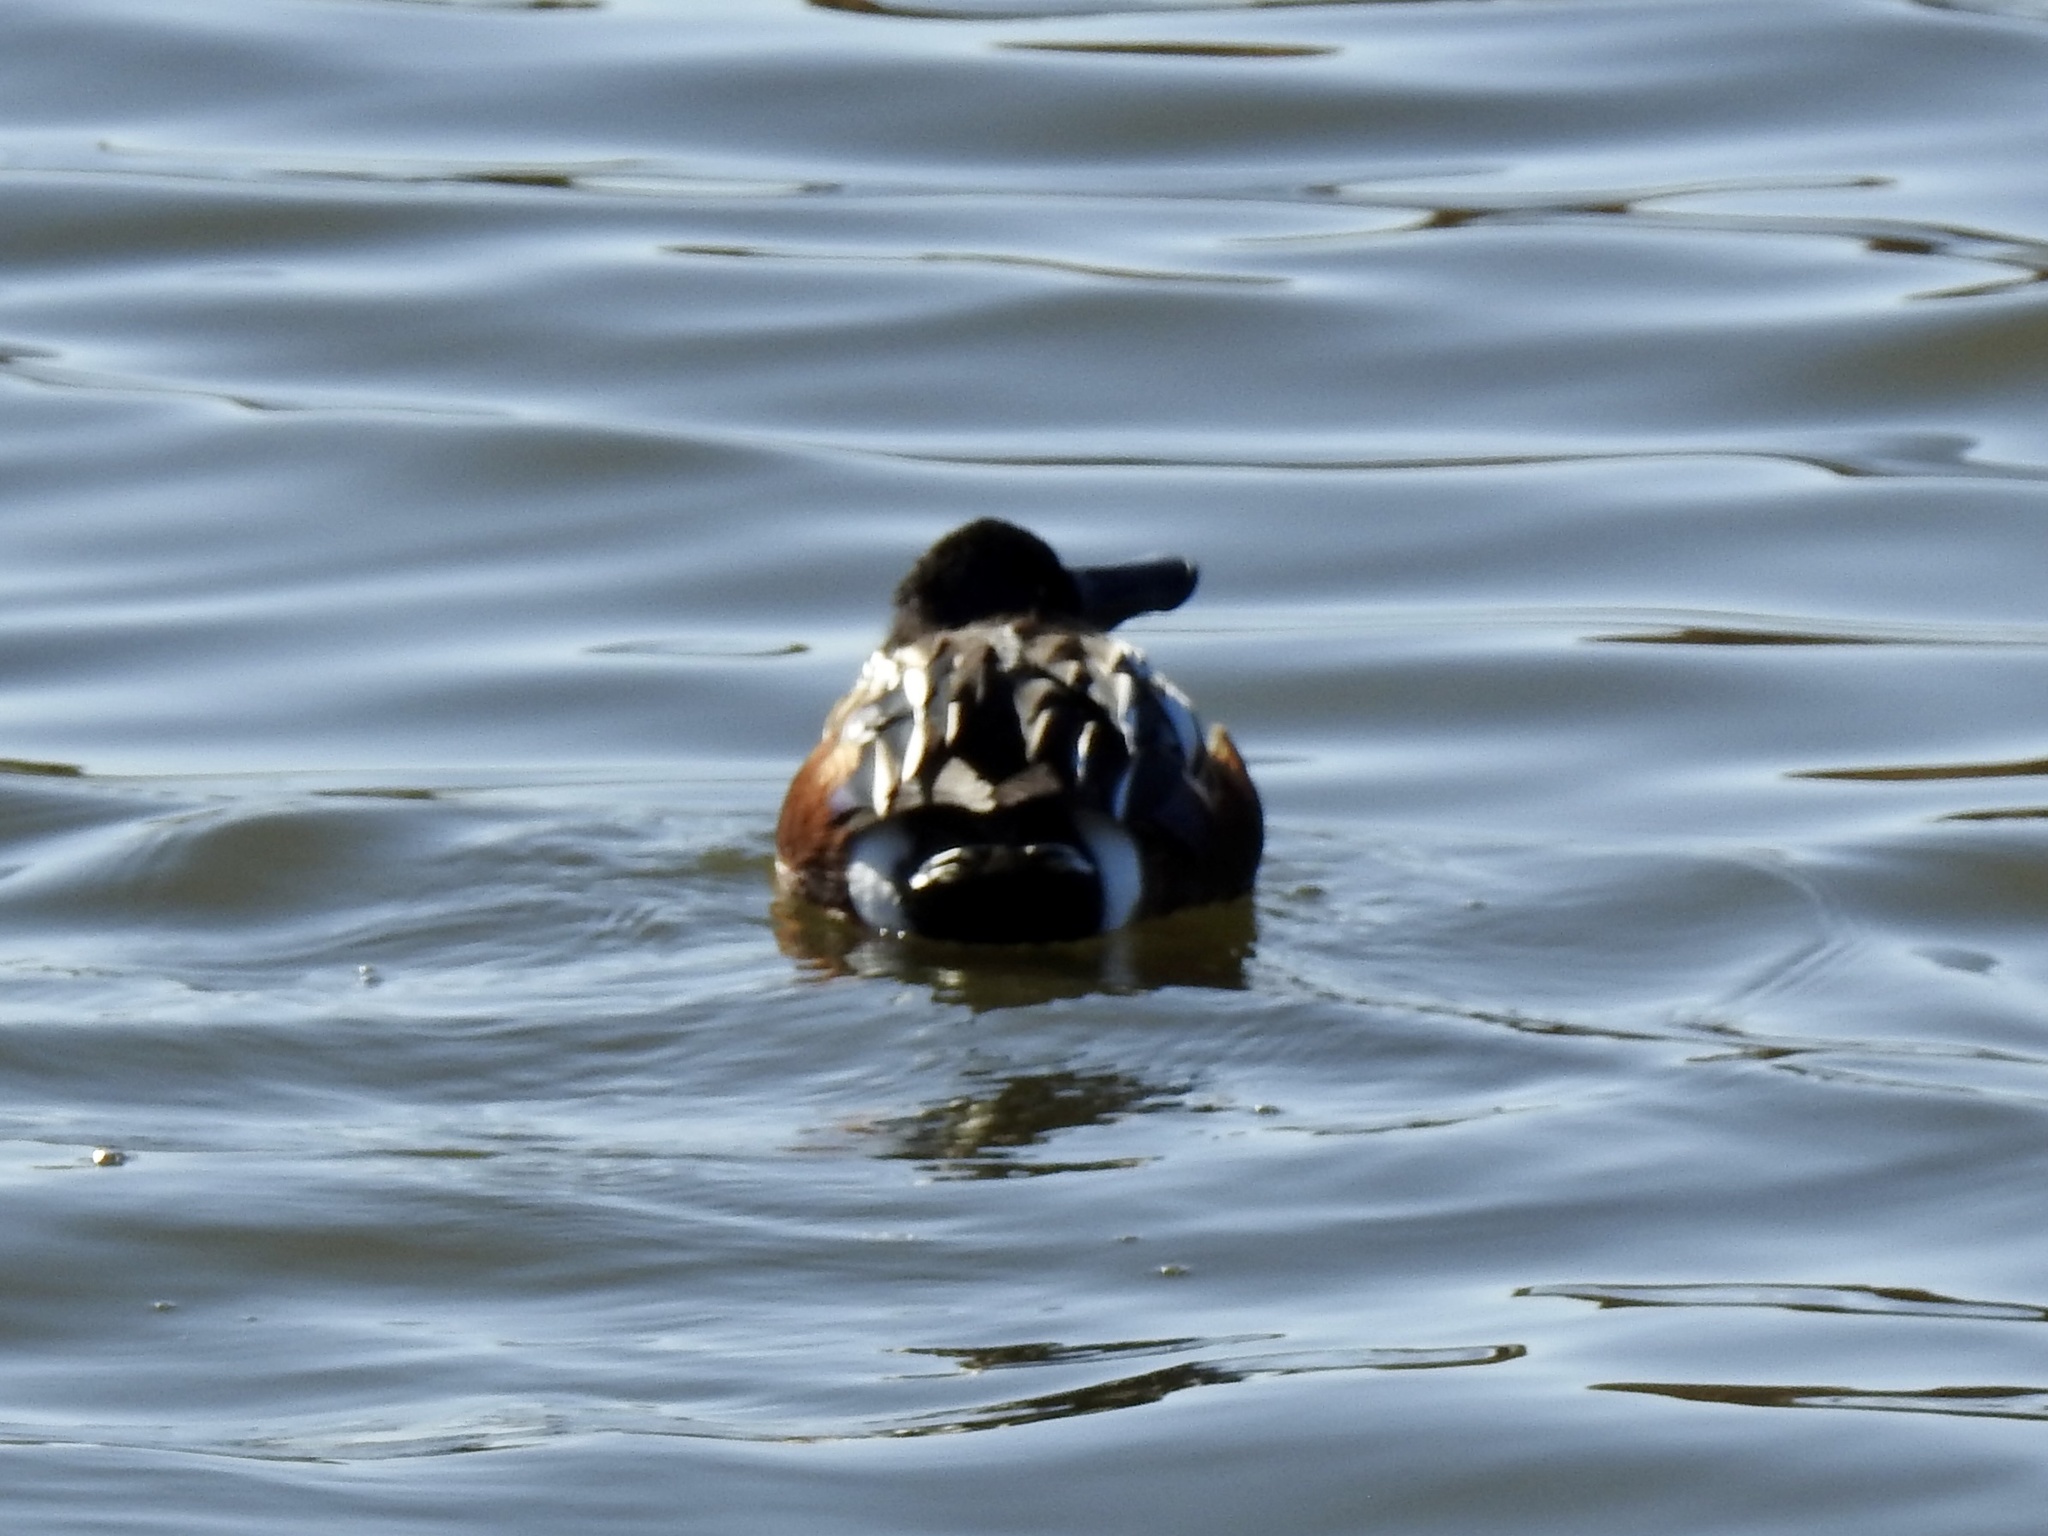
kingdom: Animalia
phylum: Chordata
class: Aves
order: Anseriformes
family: Anatidae
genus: Spatula
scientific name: Spatula clypeata
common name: Northern shoveler
